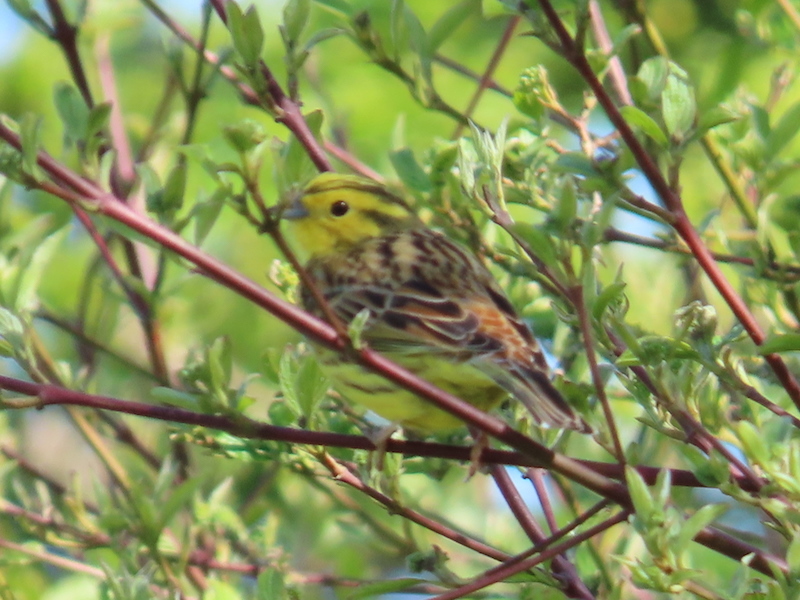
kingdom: Animalia
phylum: Chordata
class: Aves
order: Passeriformes
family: Emberizidae
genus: Emberiza
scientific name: Emberiza citrinella
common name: Yellowhammer
